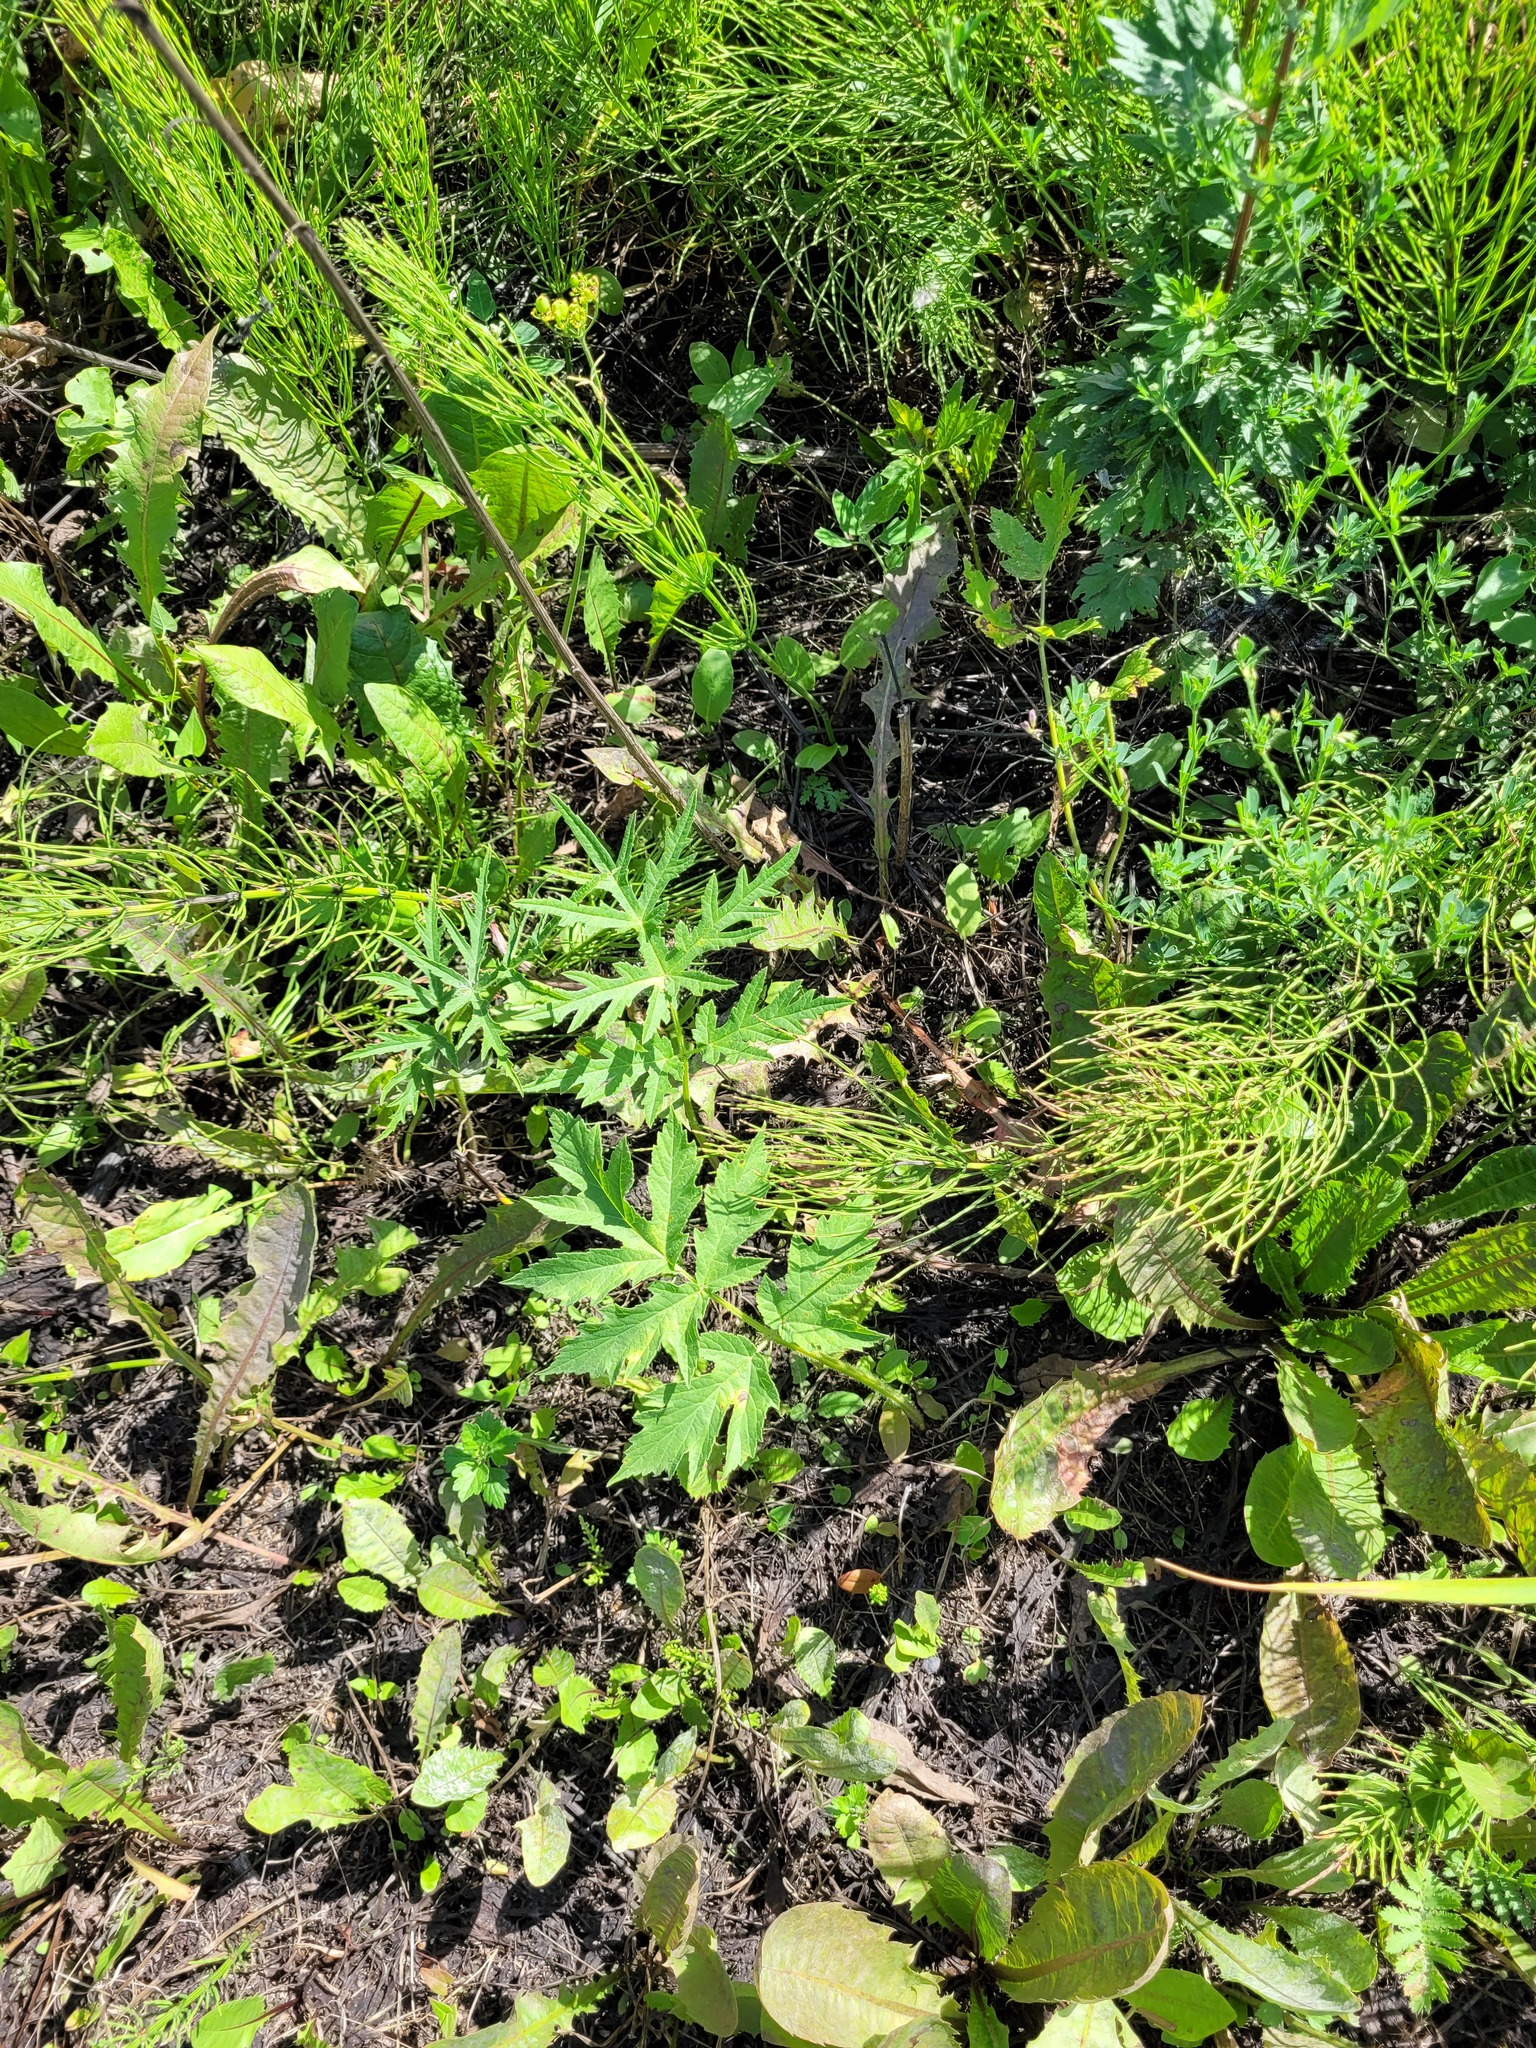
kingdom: Plantae
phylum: Tracheophyta
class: Magnoliopsida
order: Apiales
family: Apiaceae
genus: Heracleum
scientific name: Heracleum sphondylium
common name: Hogweed
